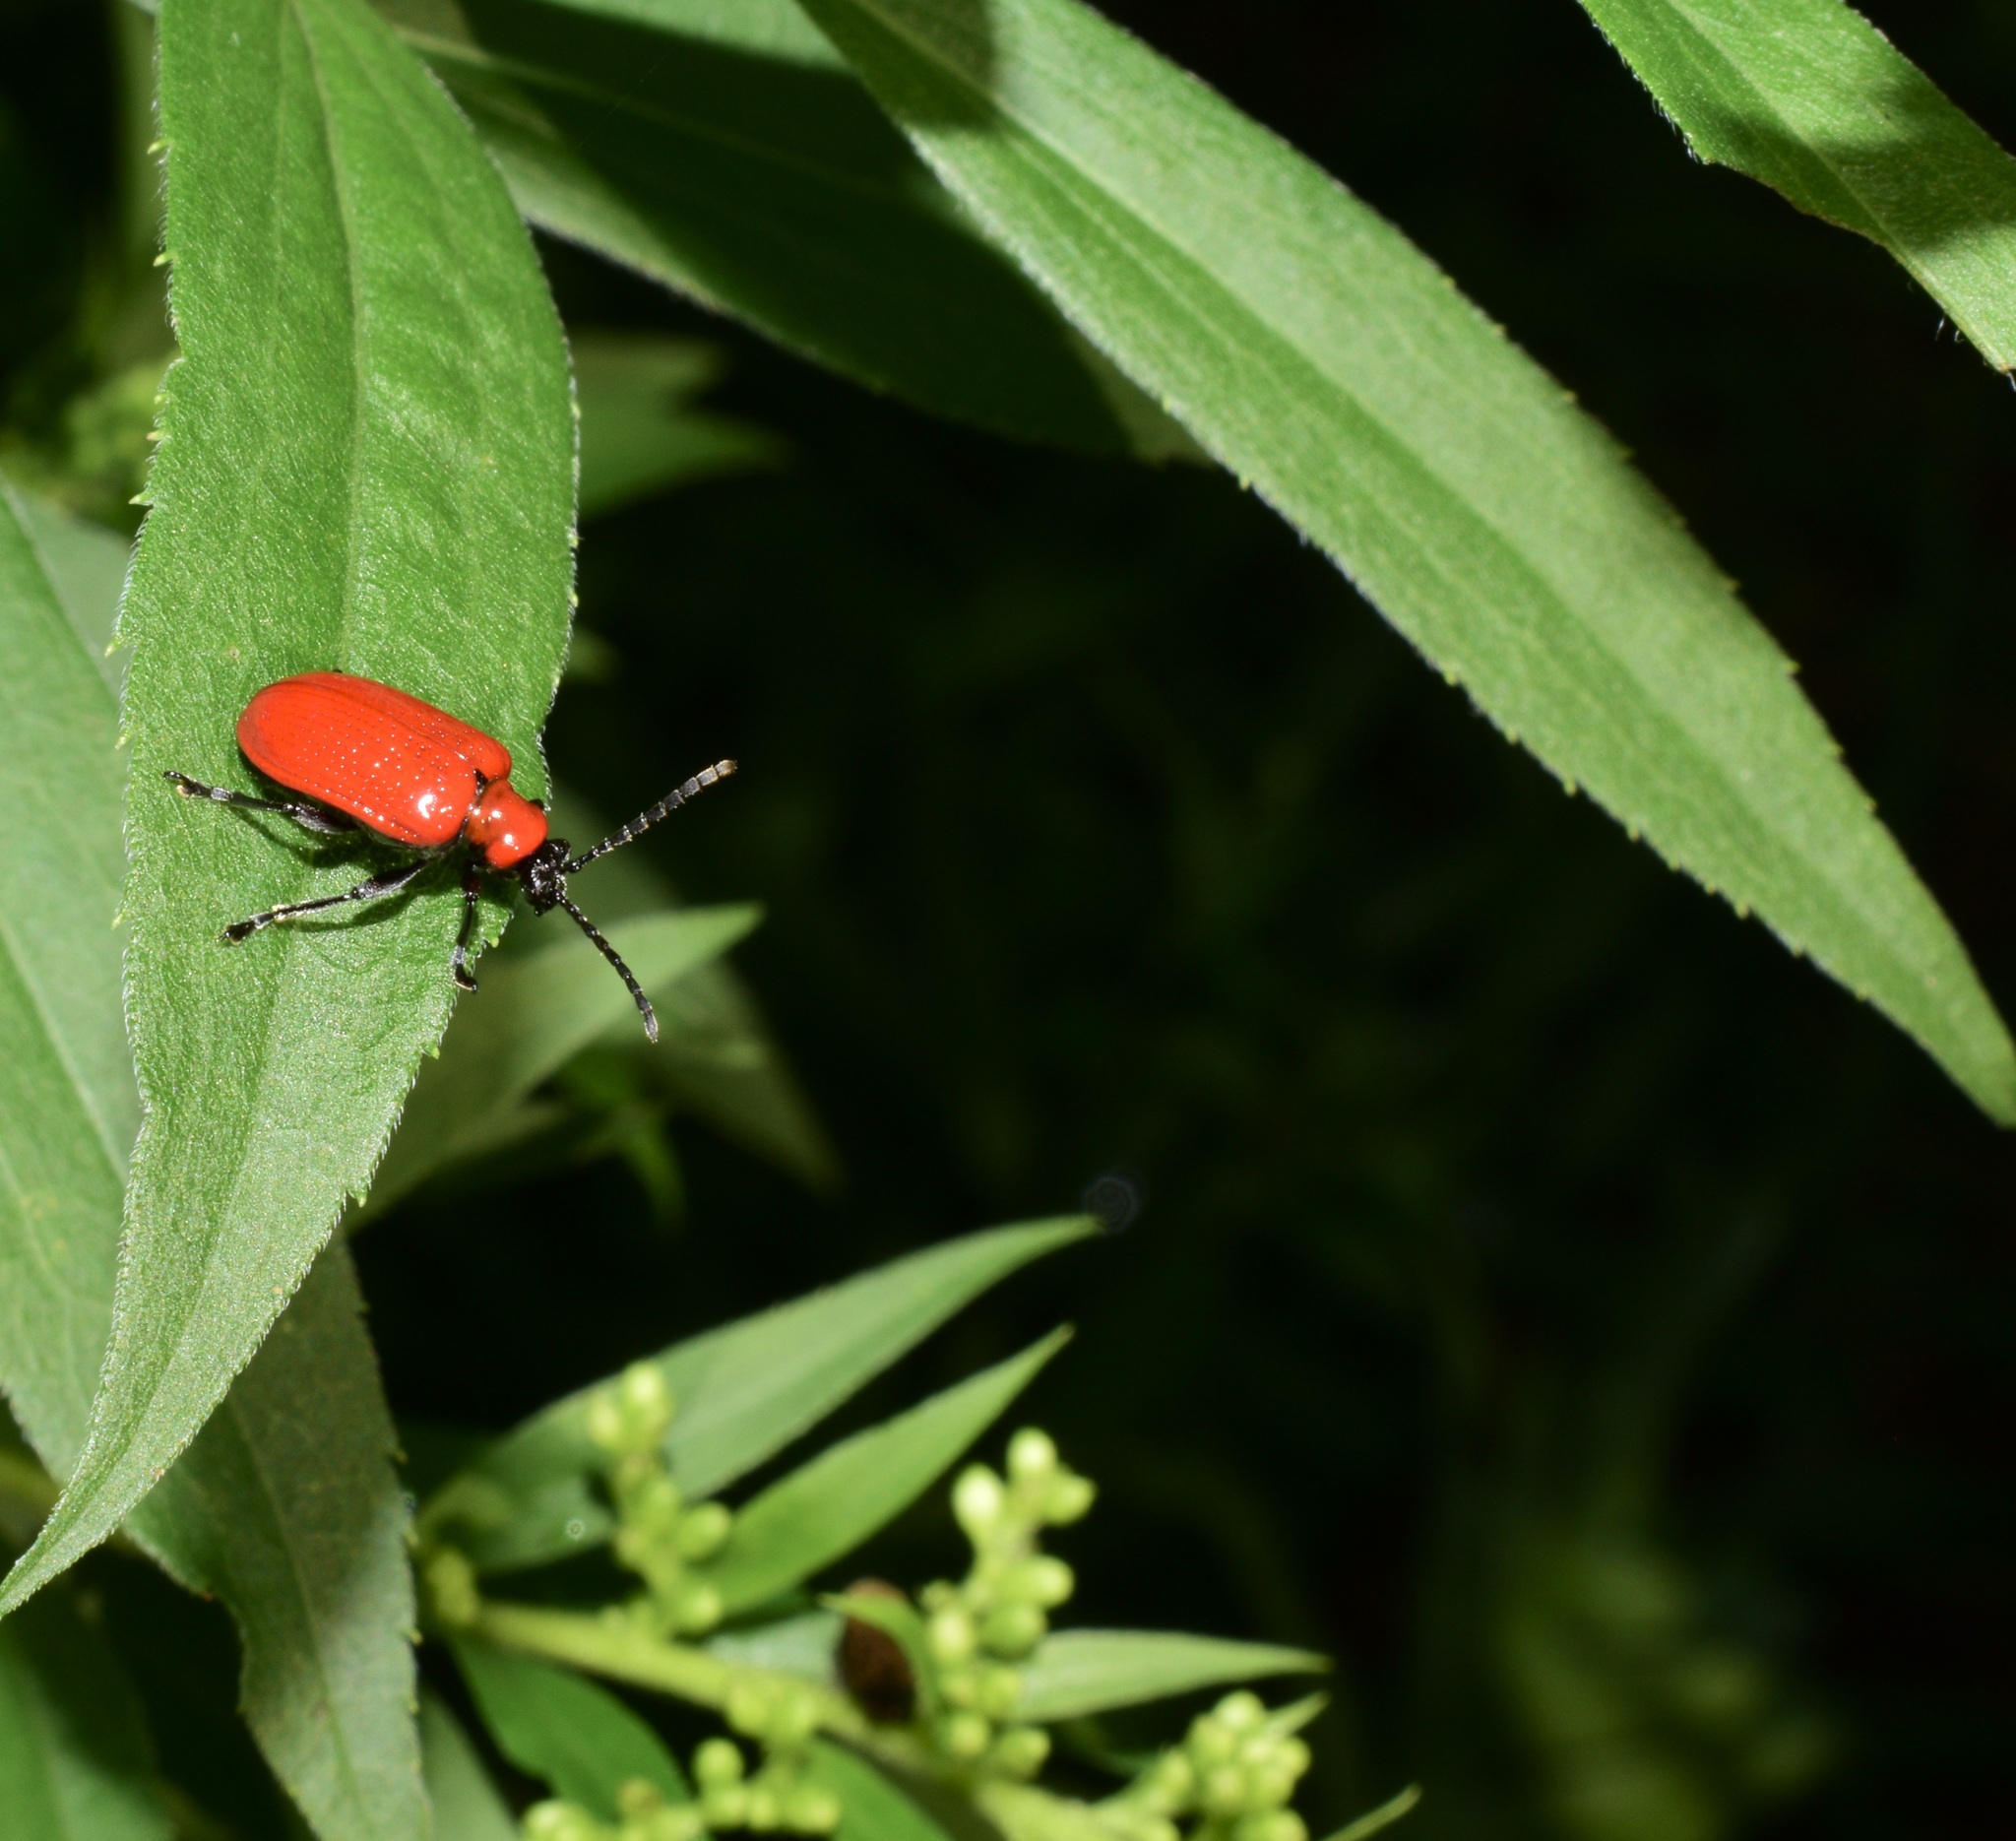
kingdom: Animalia
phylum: Arthropoda
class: Insecta
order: Coleoptera
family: Chrysomelidae
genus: Lilioceris
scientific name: Lilioceris lilii
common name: Lily beetle
